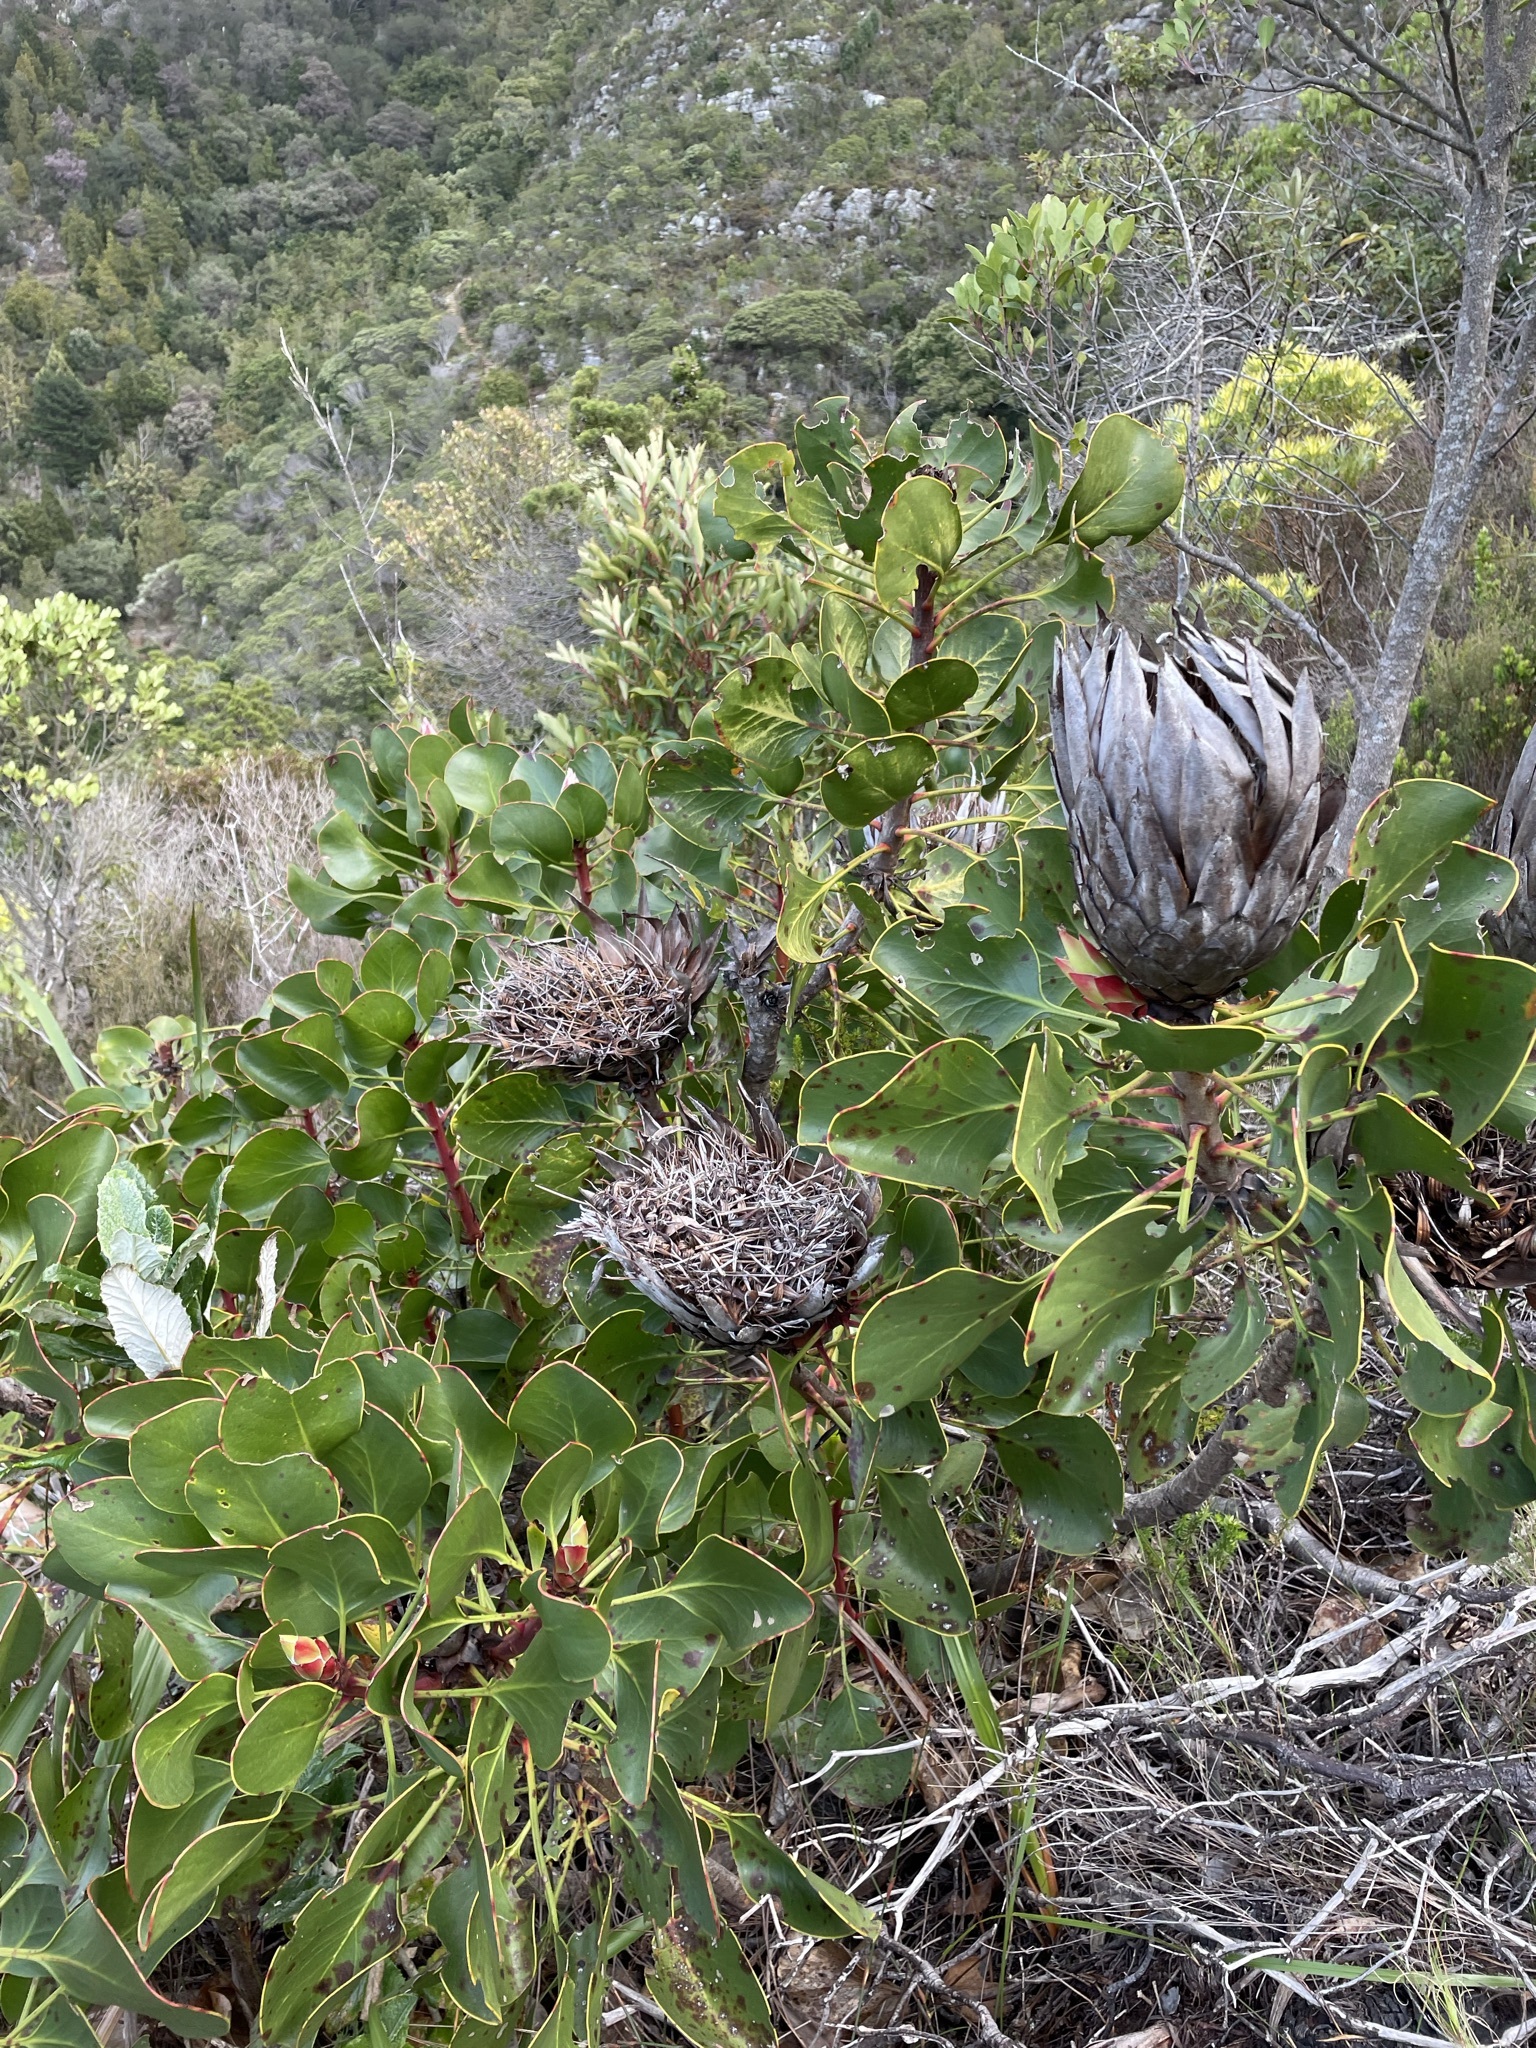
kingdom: Plantae
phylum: Tracheophyta
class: Magnoliopsida
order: Proteales
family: Proteaceae
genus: Protea
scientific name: Protea cynaroides
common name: King protea
